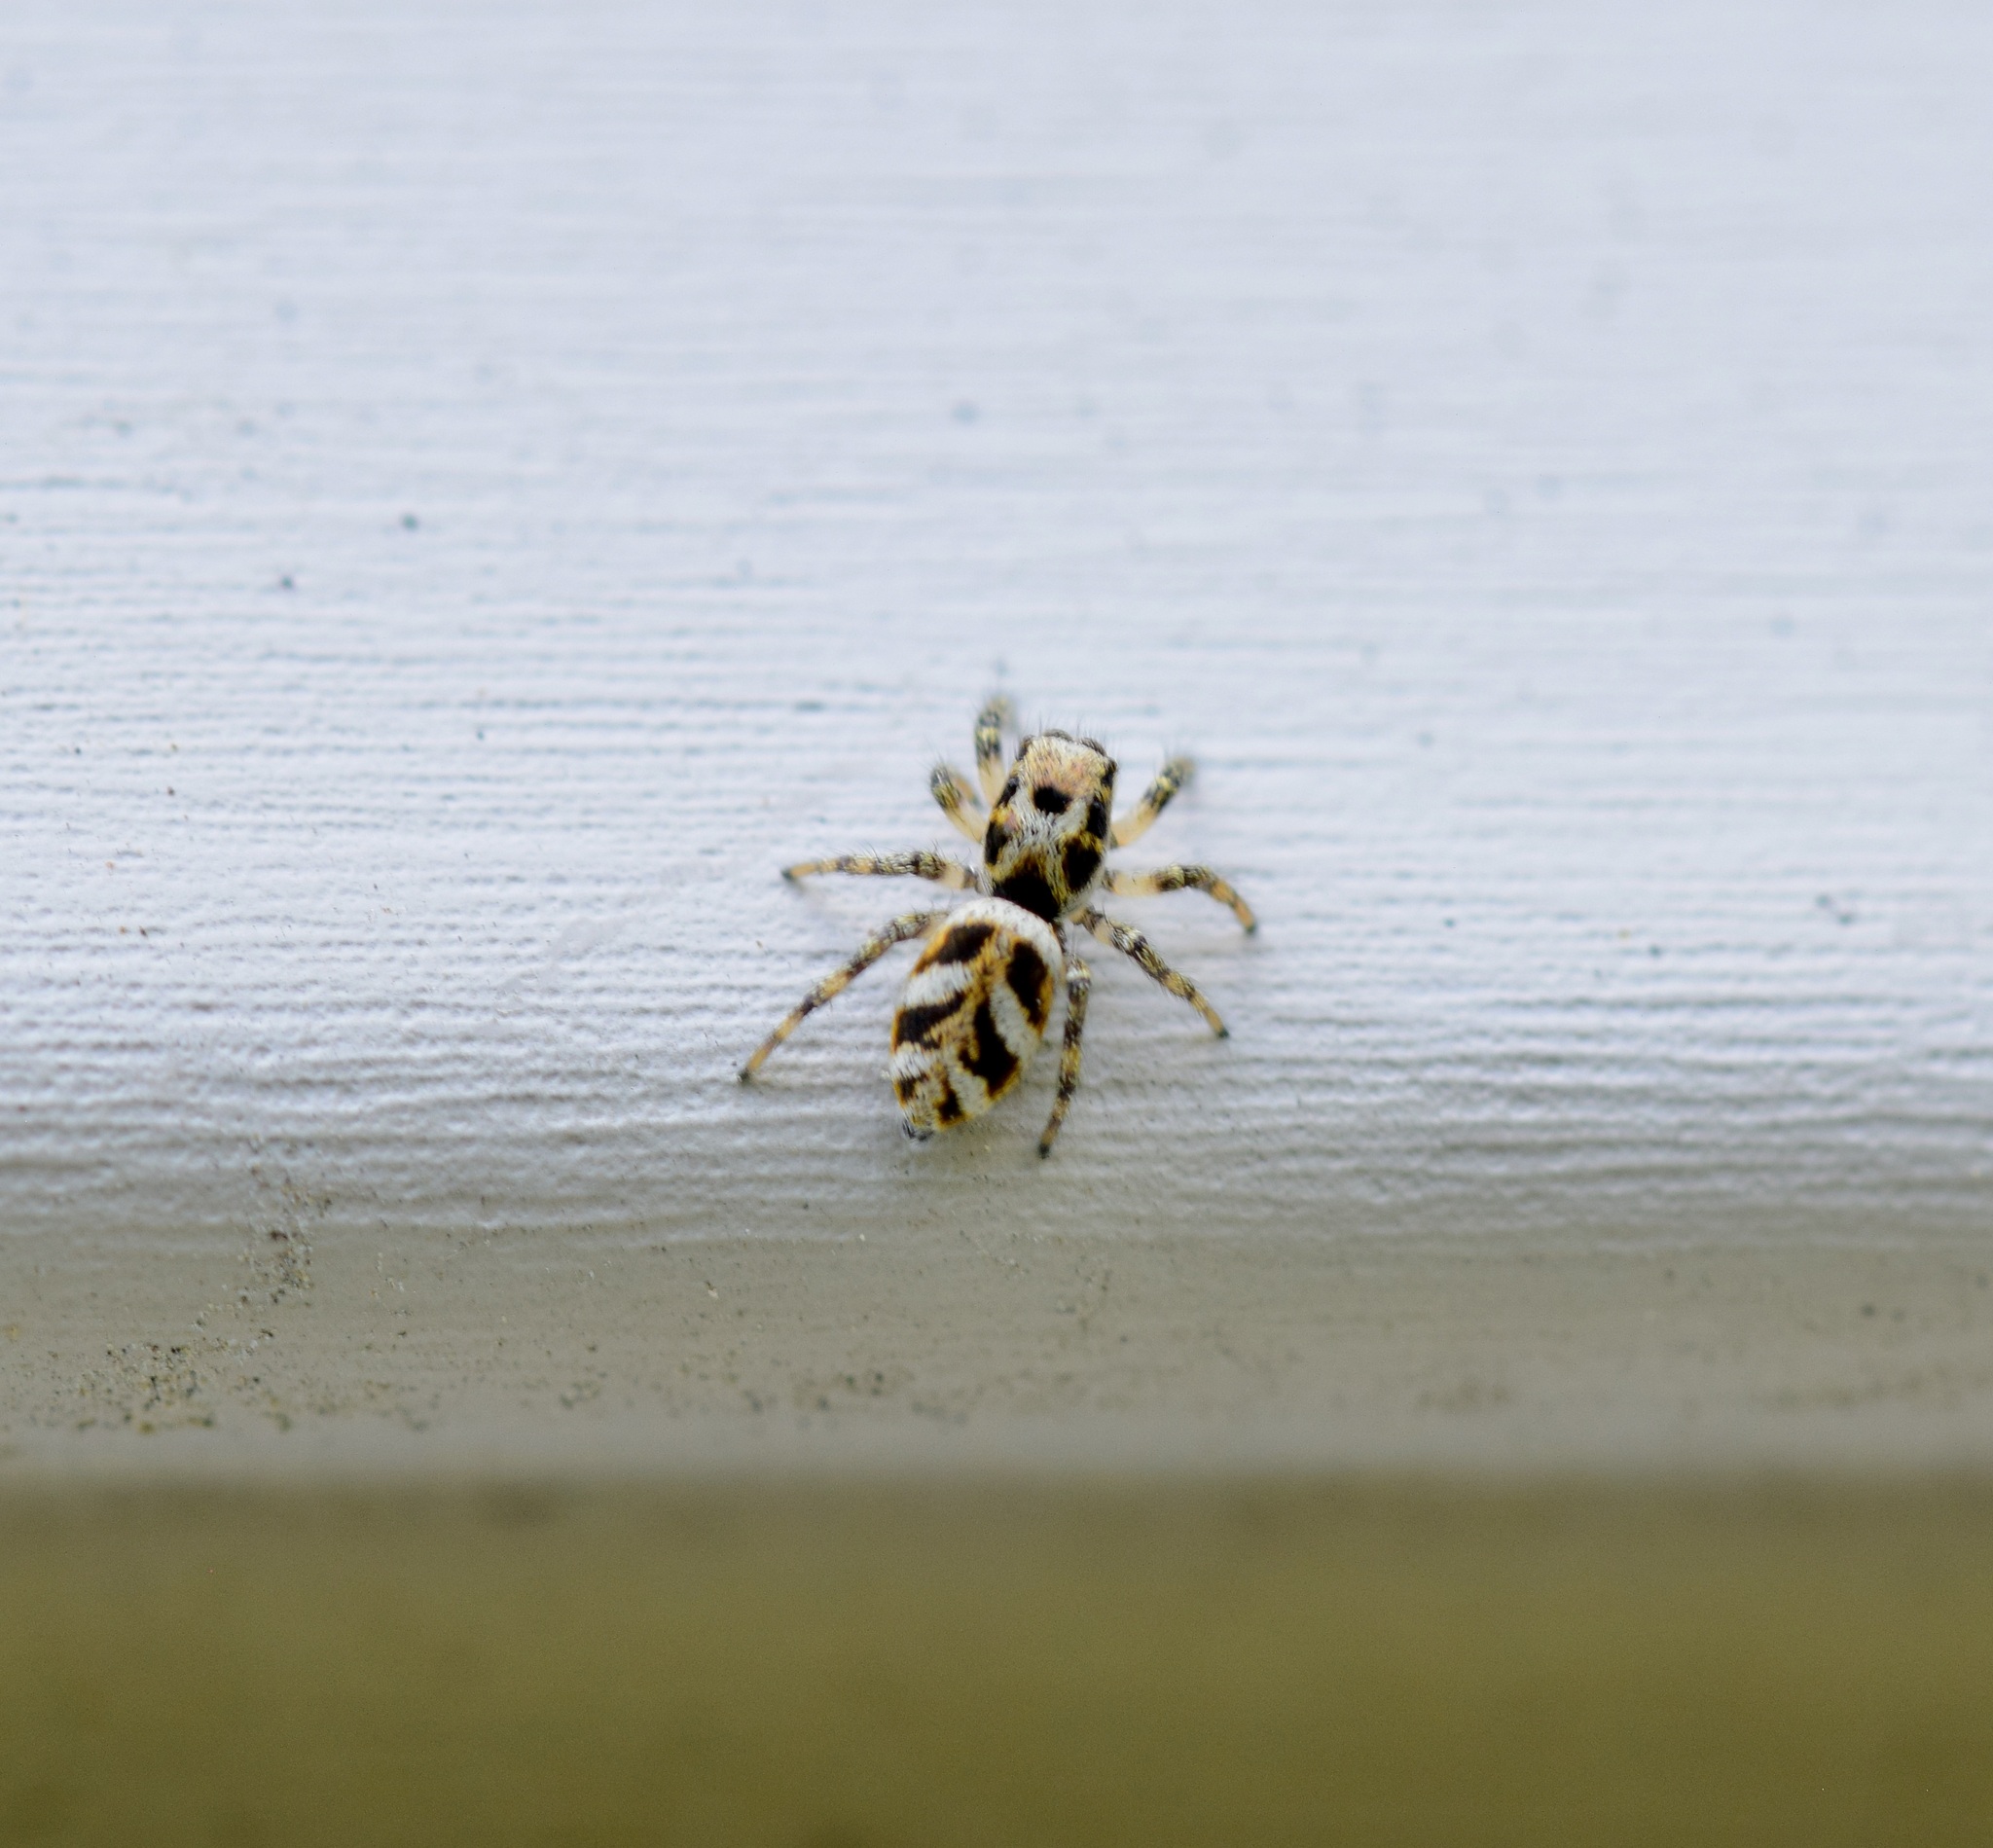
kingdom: Animalia
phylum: Arthropoda
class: Arachnida
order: Araneae
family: Salticidae
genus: Salticus
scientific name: Salticus scenicus
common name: Zebra jumper
